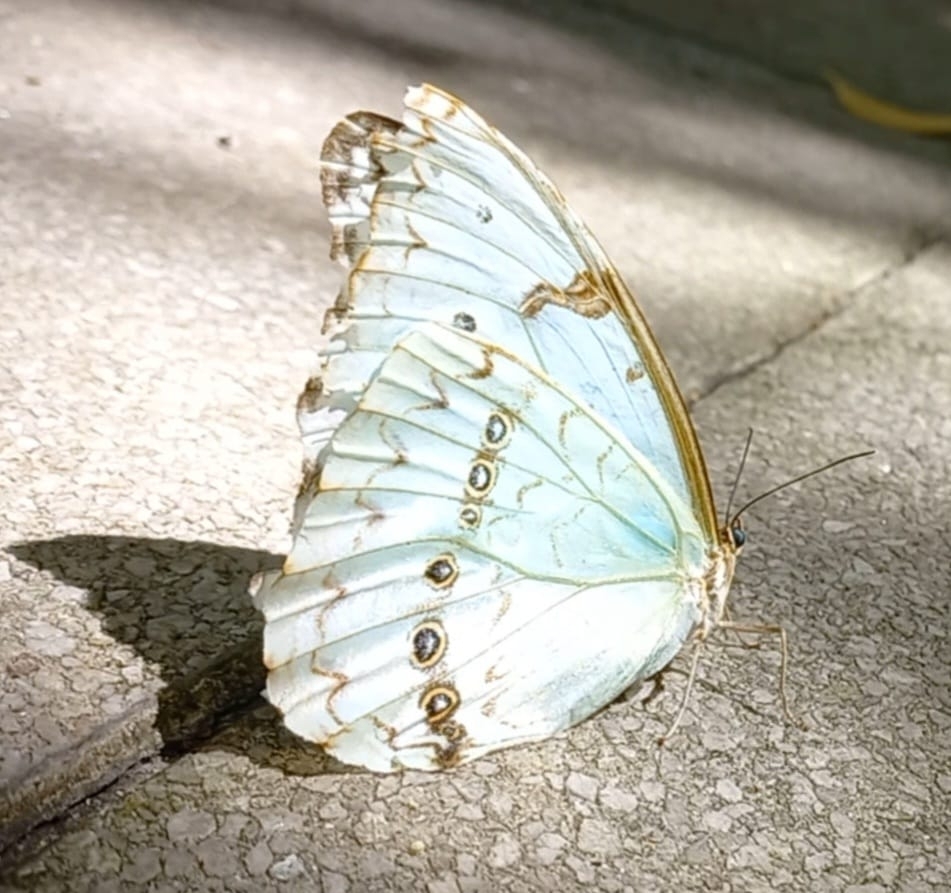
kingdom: Animalia
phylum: Arthropoda
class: Insecta
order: Lepidoptera
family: Nymphalidae
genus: Morpho
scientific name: Morpho epistrophus
